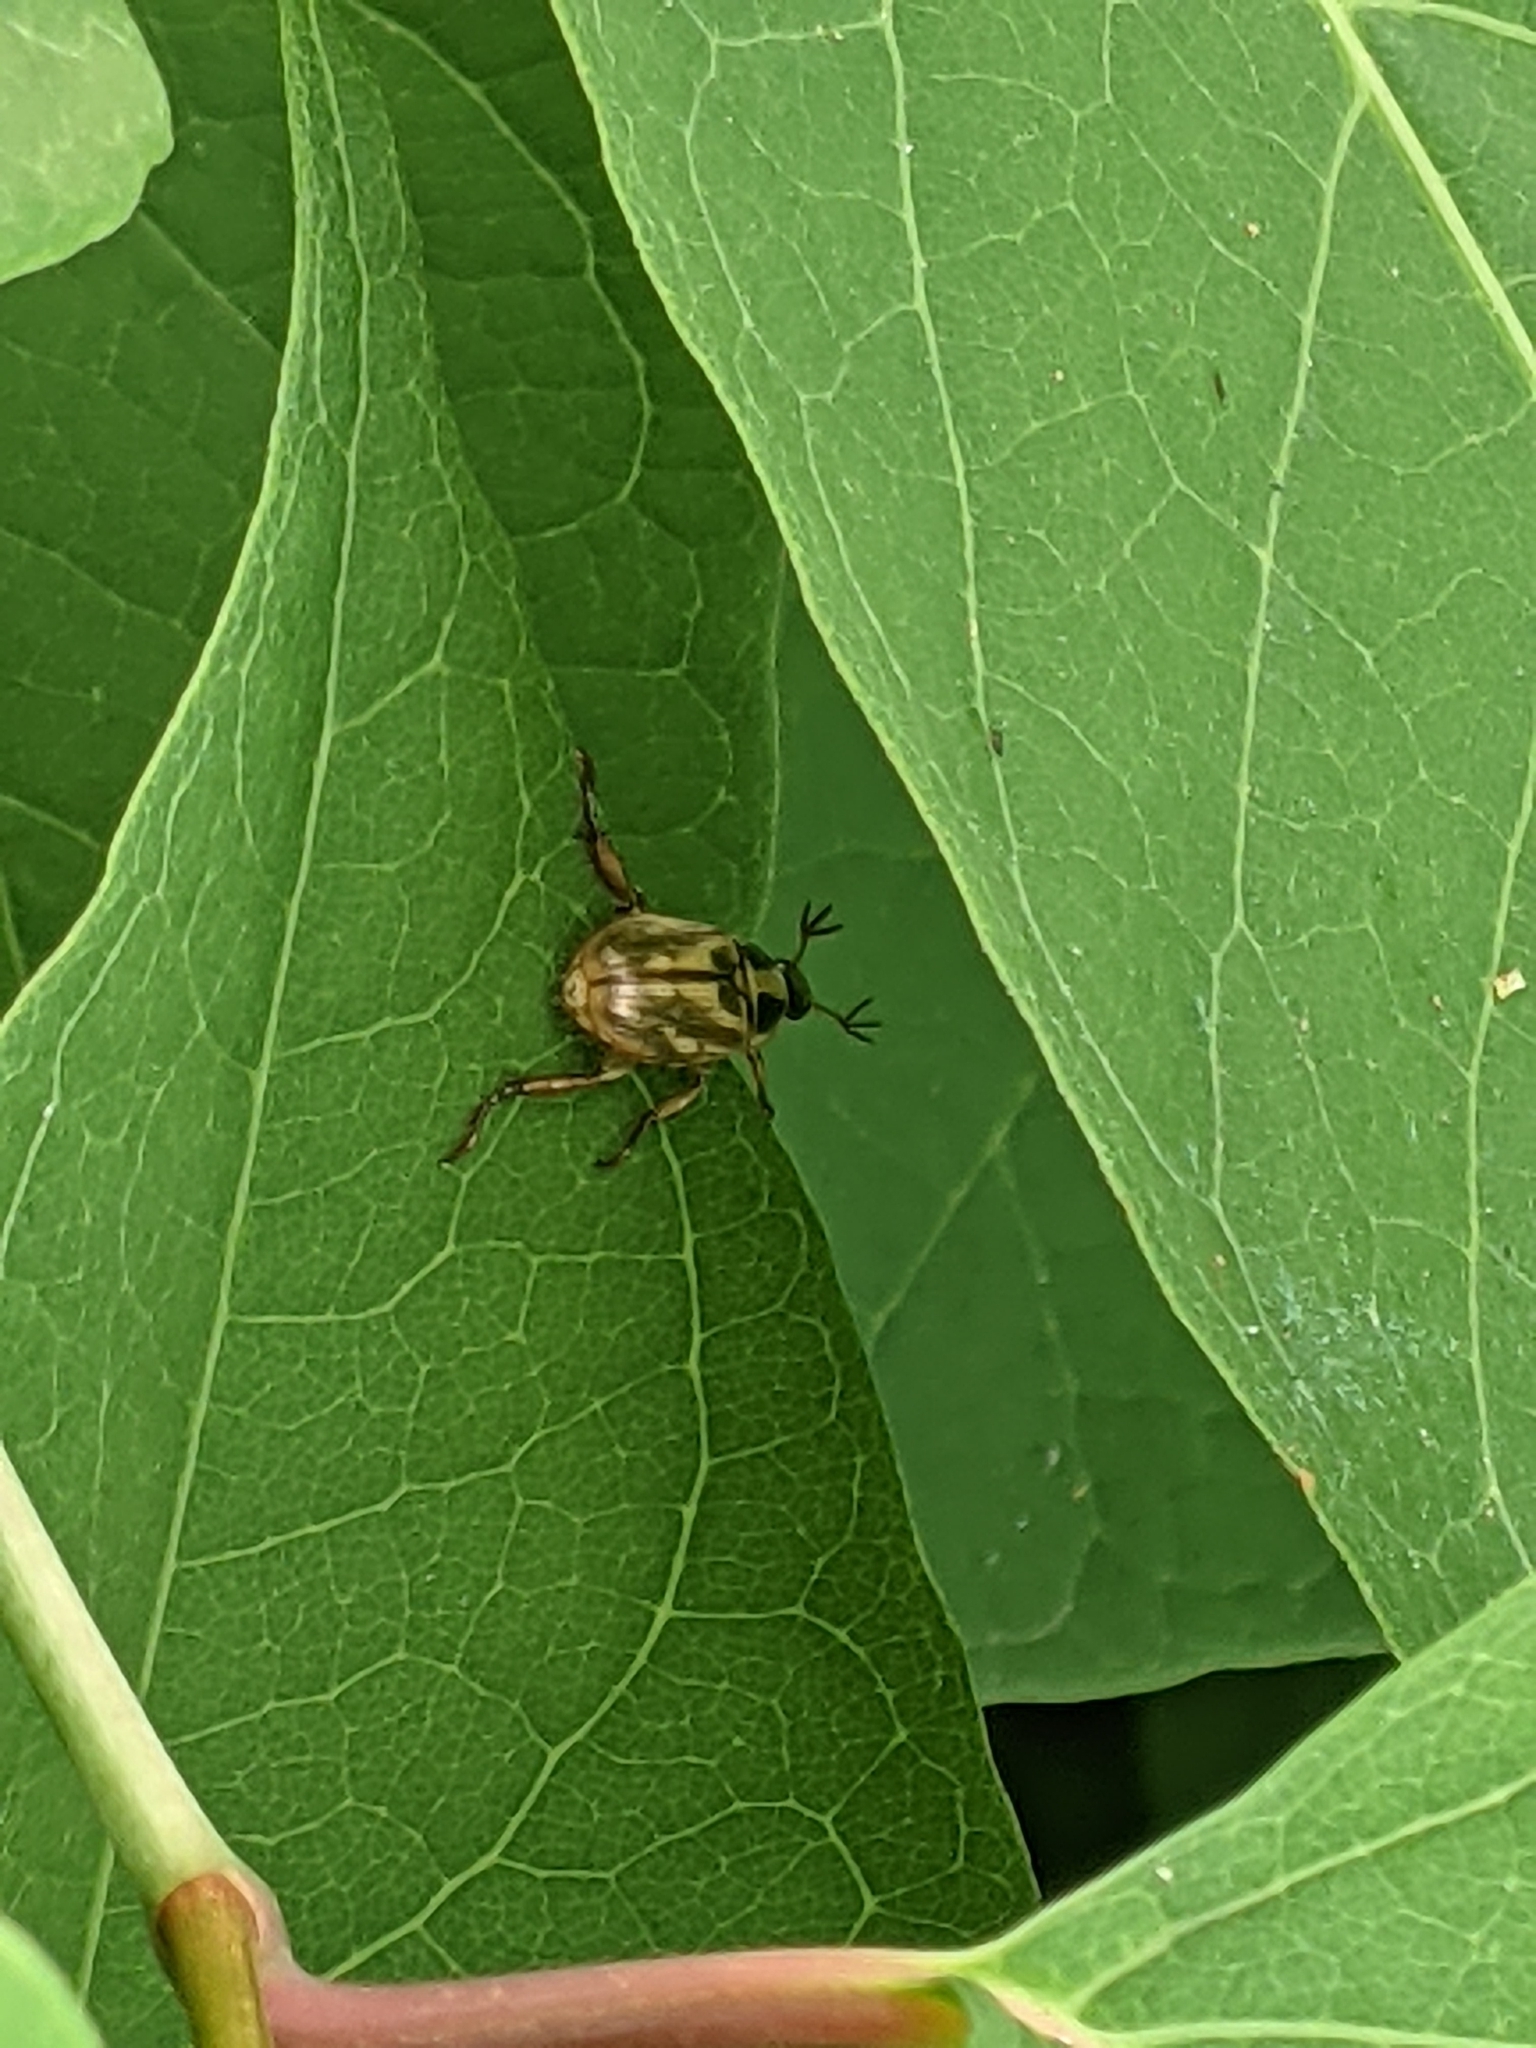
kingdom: Animalia
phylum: Arthropoda
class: Insecta
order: Coleoptera
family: Scarabaeidae
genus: Exomala
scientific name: Exomala orientalis
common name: Oriental beetle
